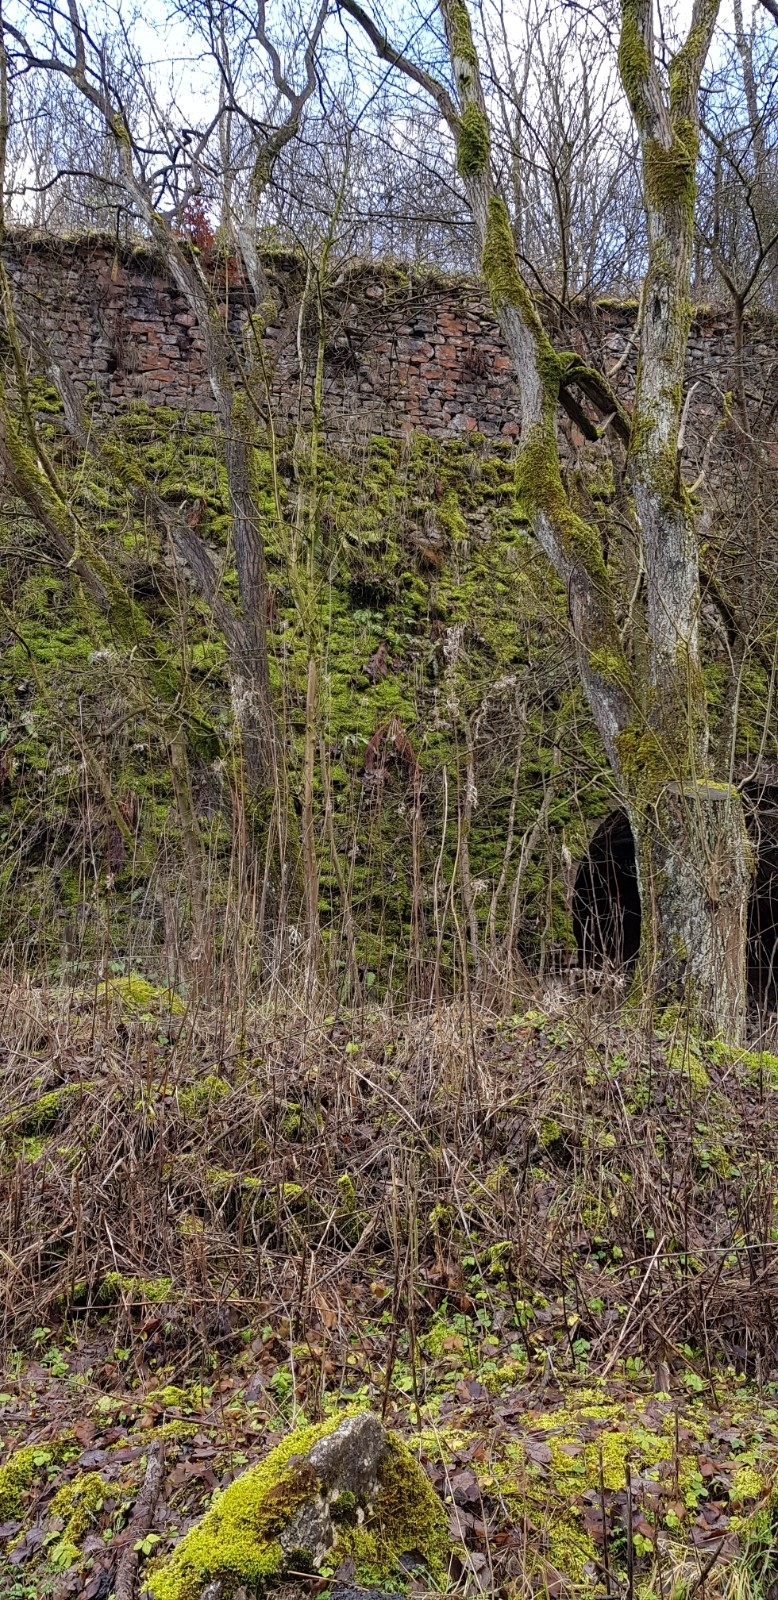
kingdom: Plantae
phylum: Marchantiophyta
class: Jungermanniopsida
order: Jungermanniales
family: Jungermanniaceae
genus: Jungermannia
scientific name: Jungermannia atrovirens
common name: Dark-green flapwort
